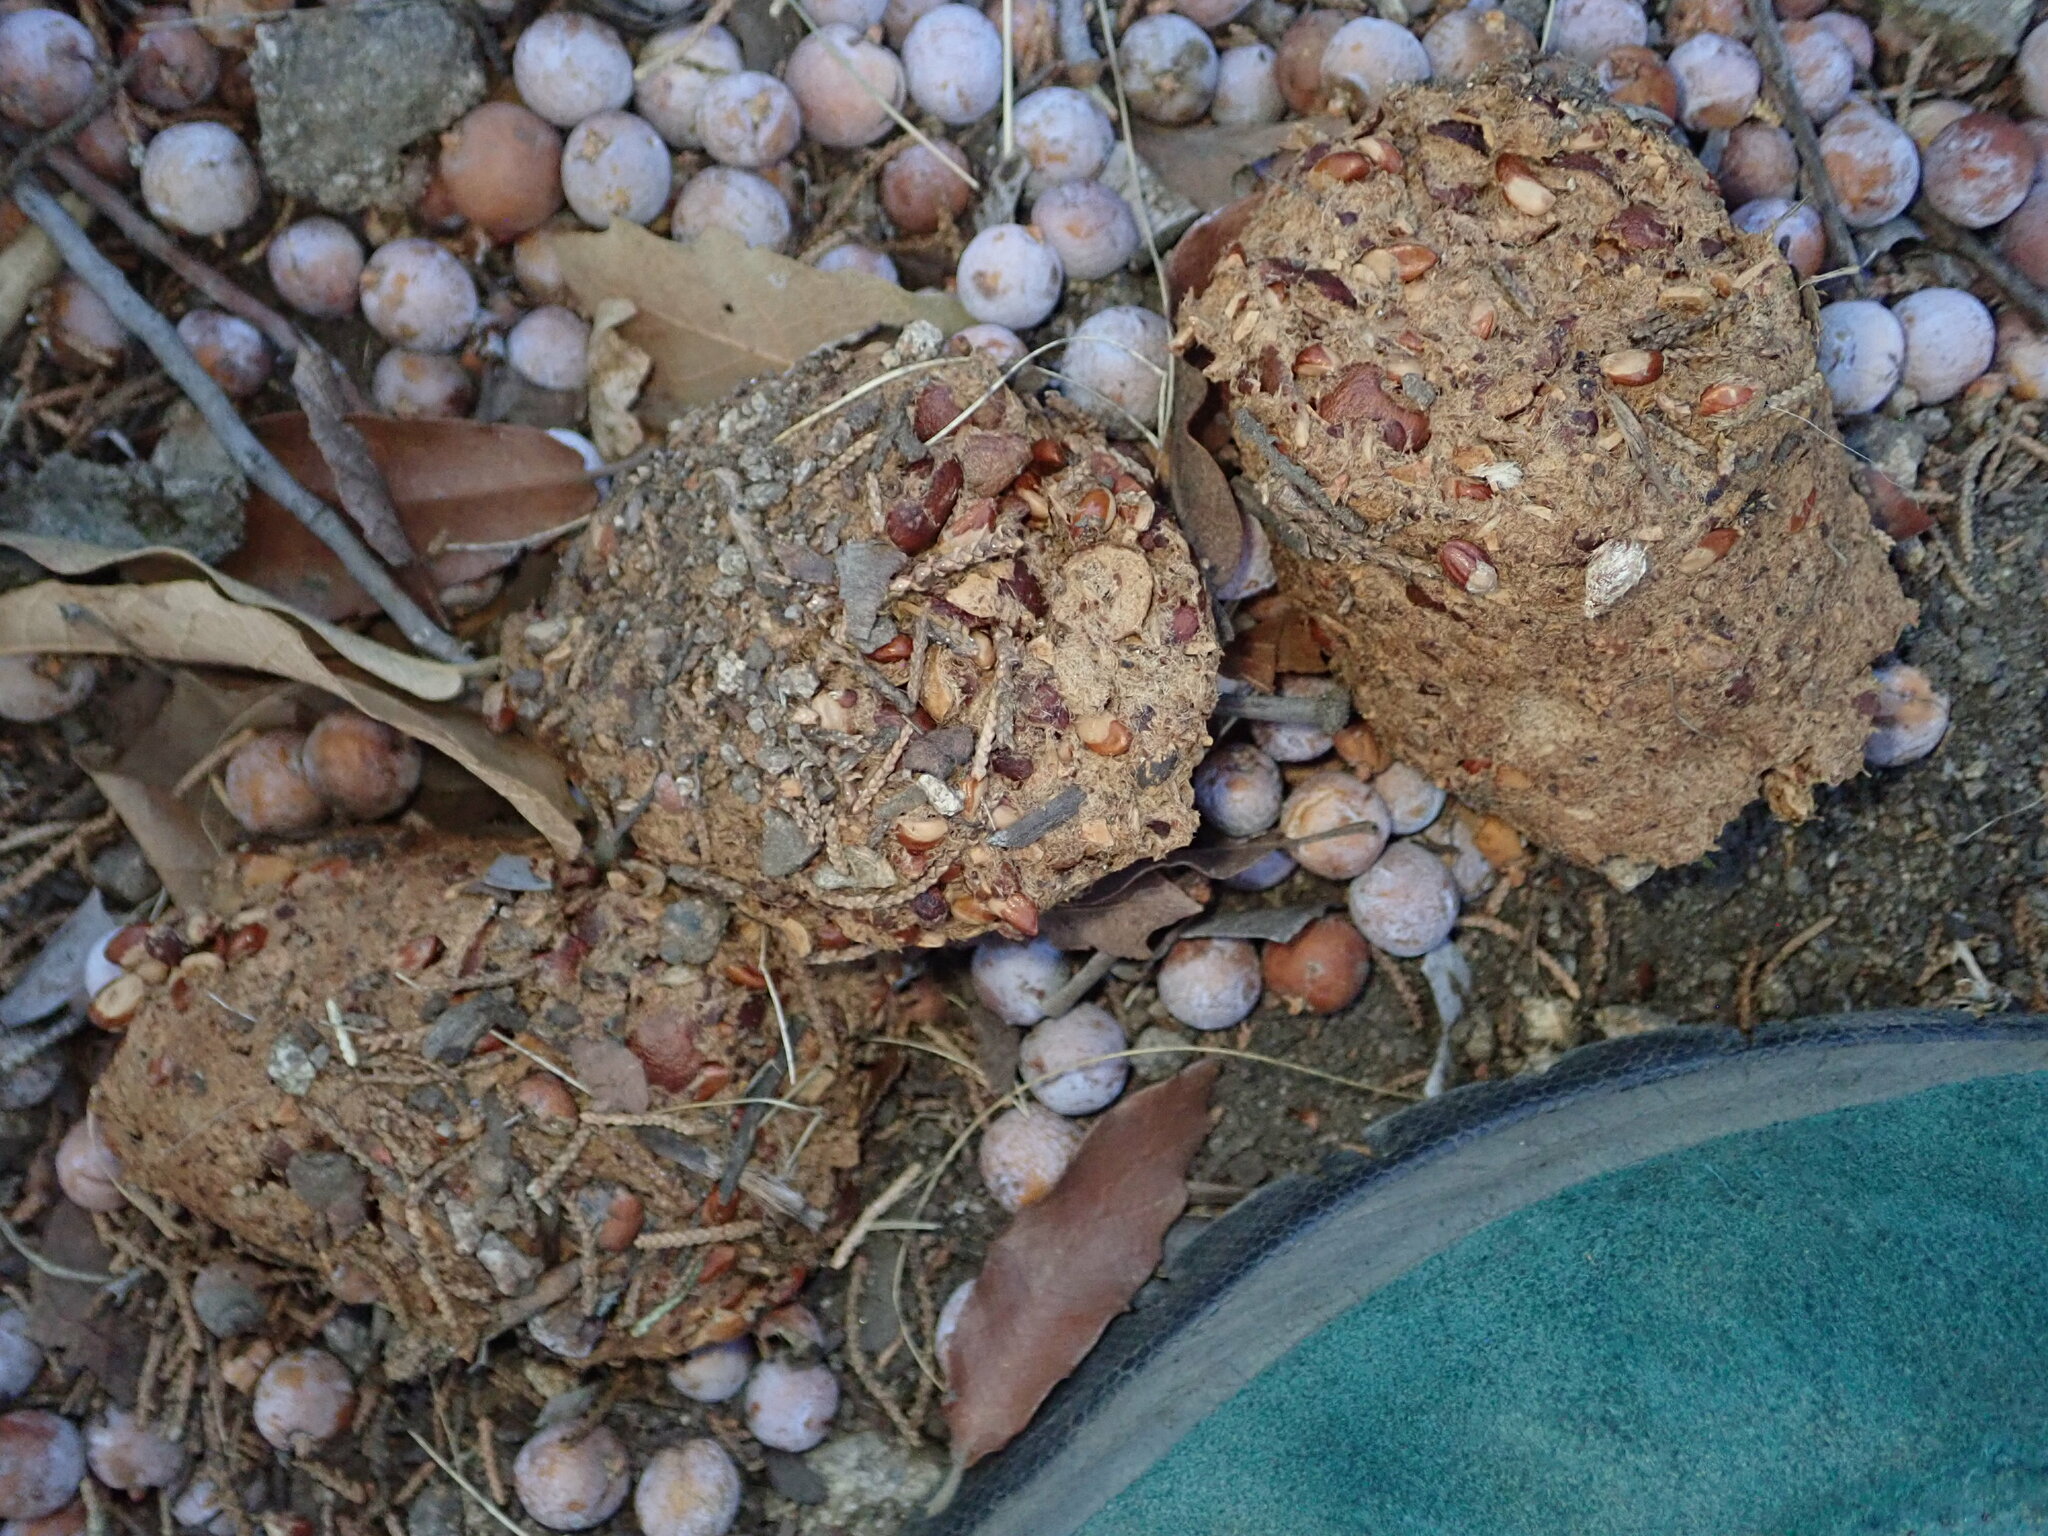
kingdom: Animalia
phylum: Chordata
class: Mammalia
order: Carnivora
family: Ursidae
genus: Ursus
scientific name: Ursus americanus
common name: American black bear
